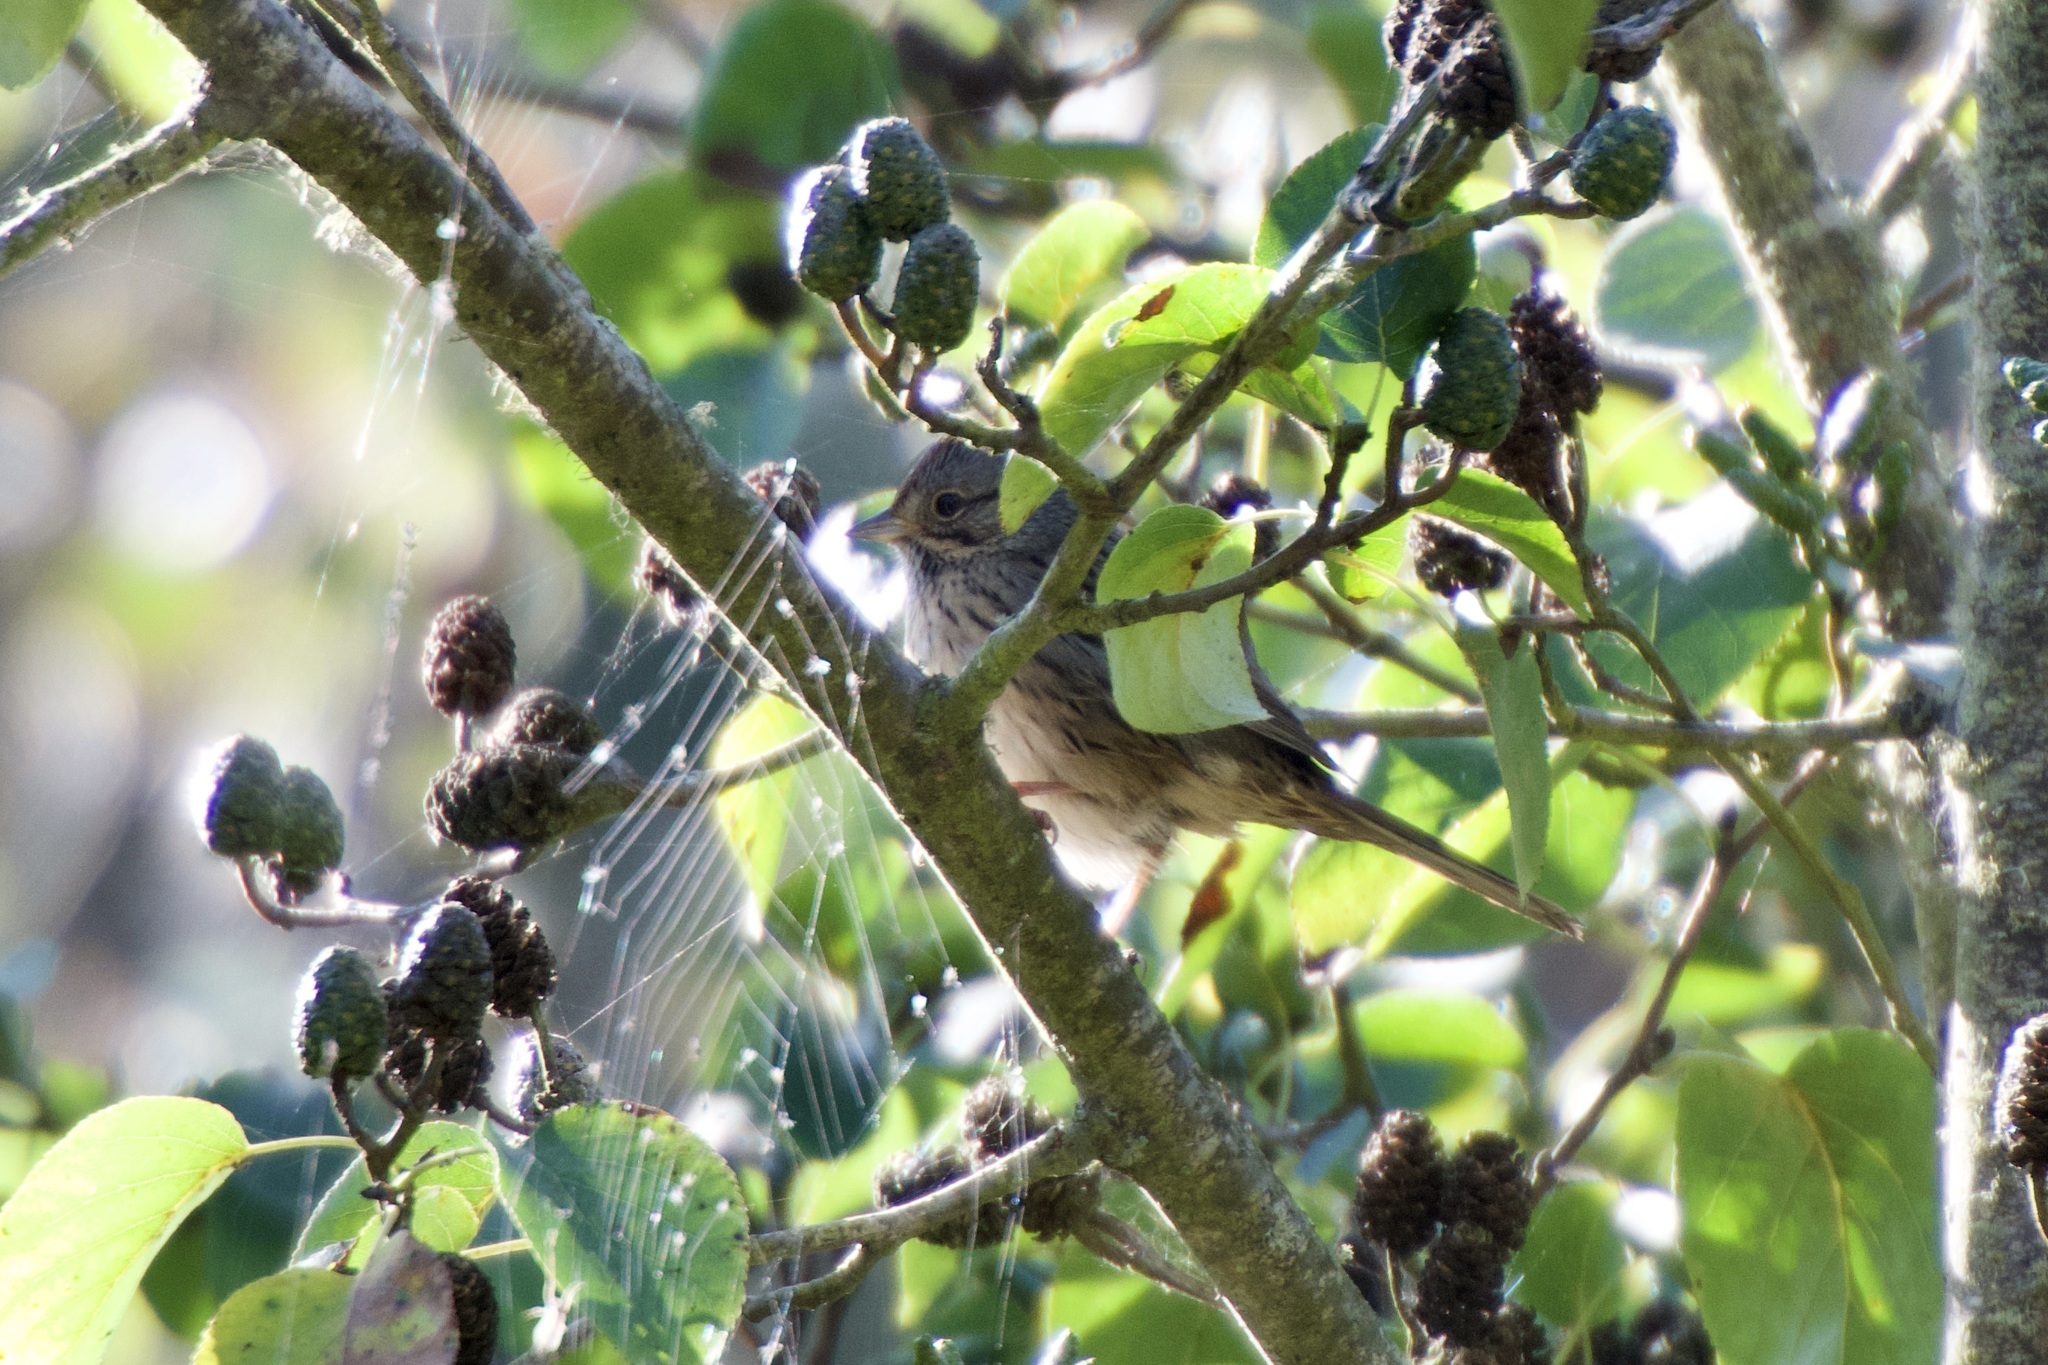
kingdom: Animalia
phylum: Chordata
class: Aves
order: Passeriformes
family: Passerellidae
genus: Melospiza
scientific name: Melospiza lincolnii
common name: Lincoln's sparrow
